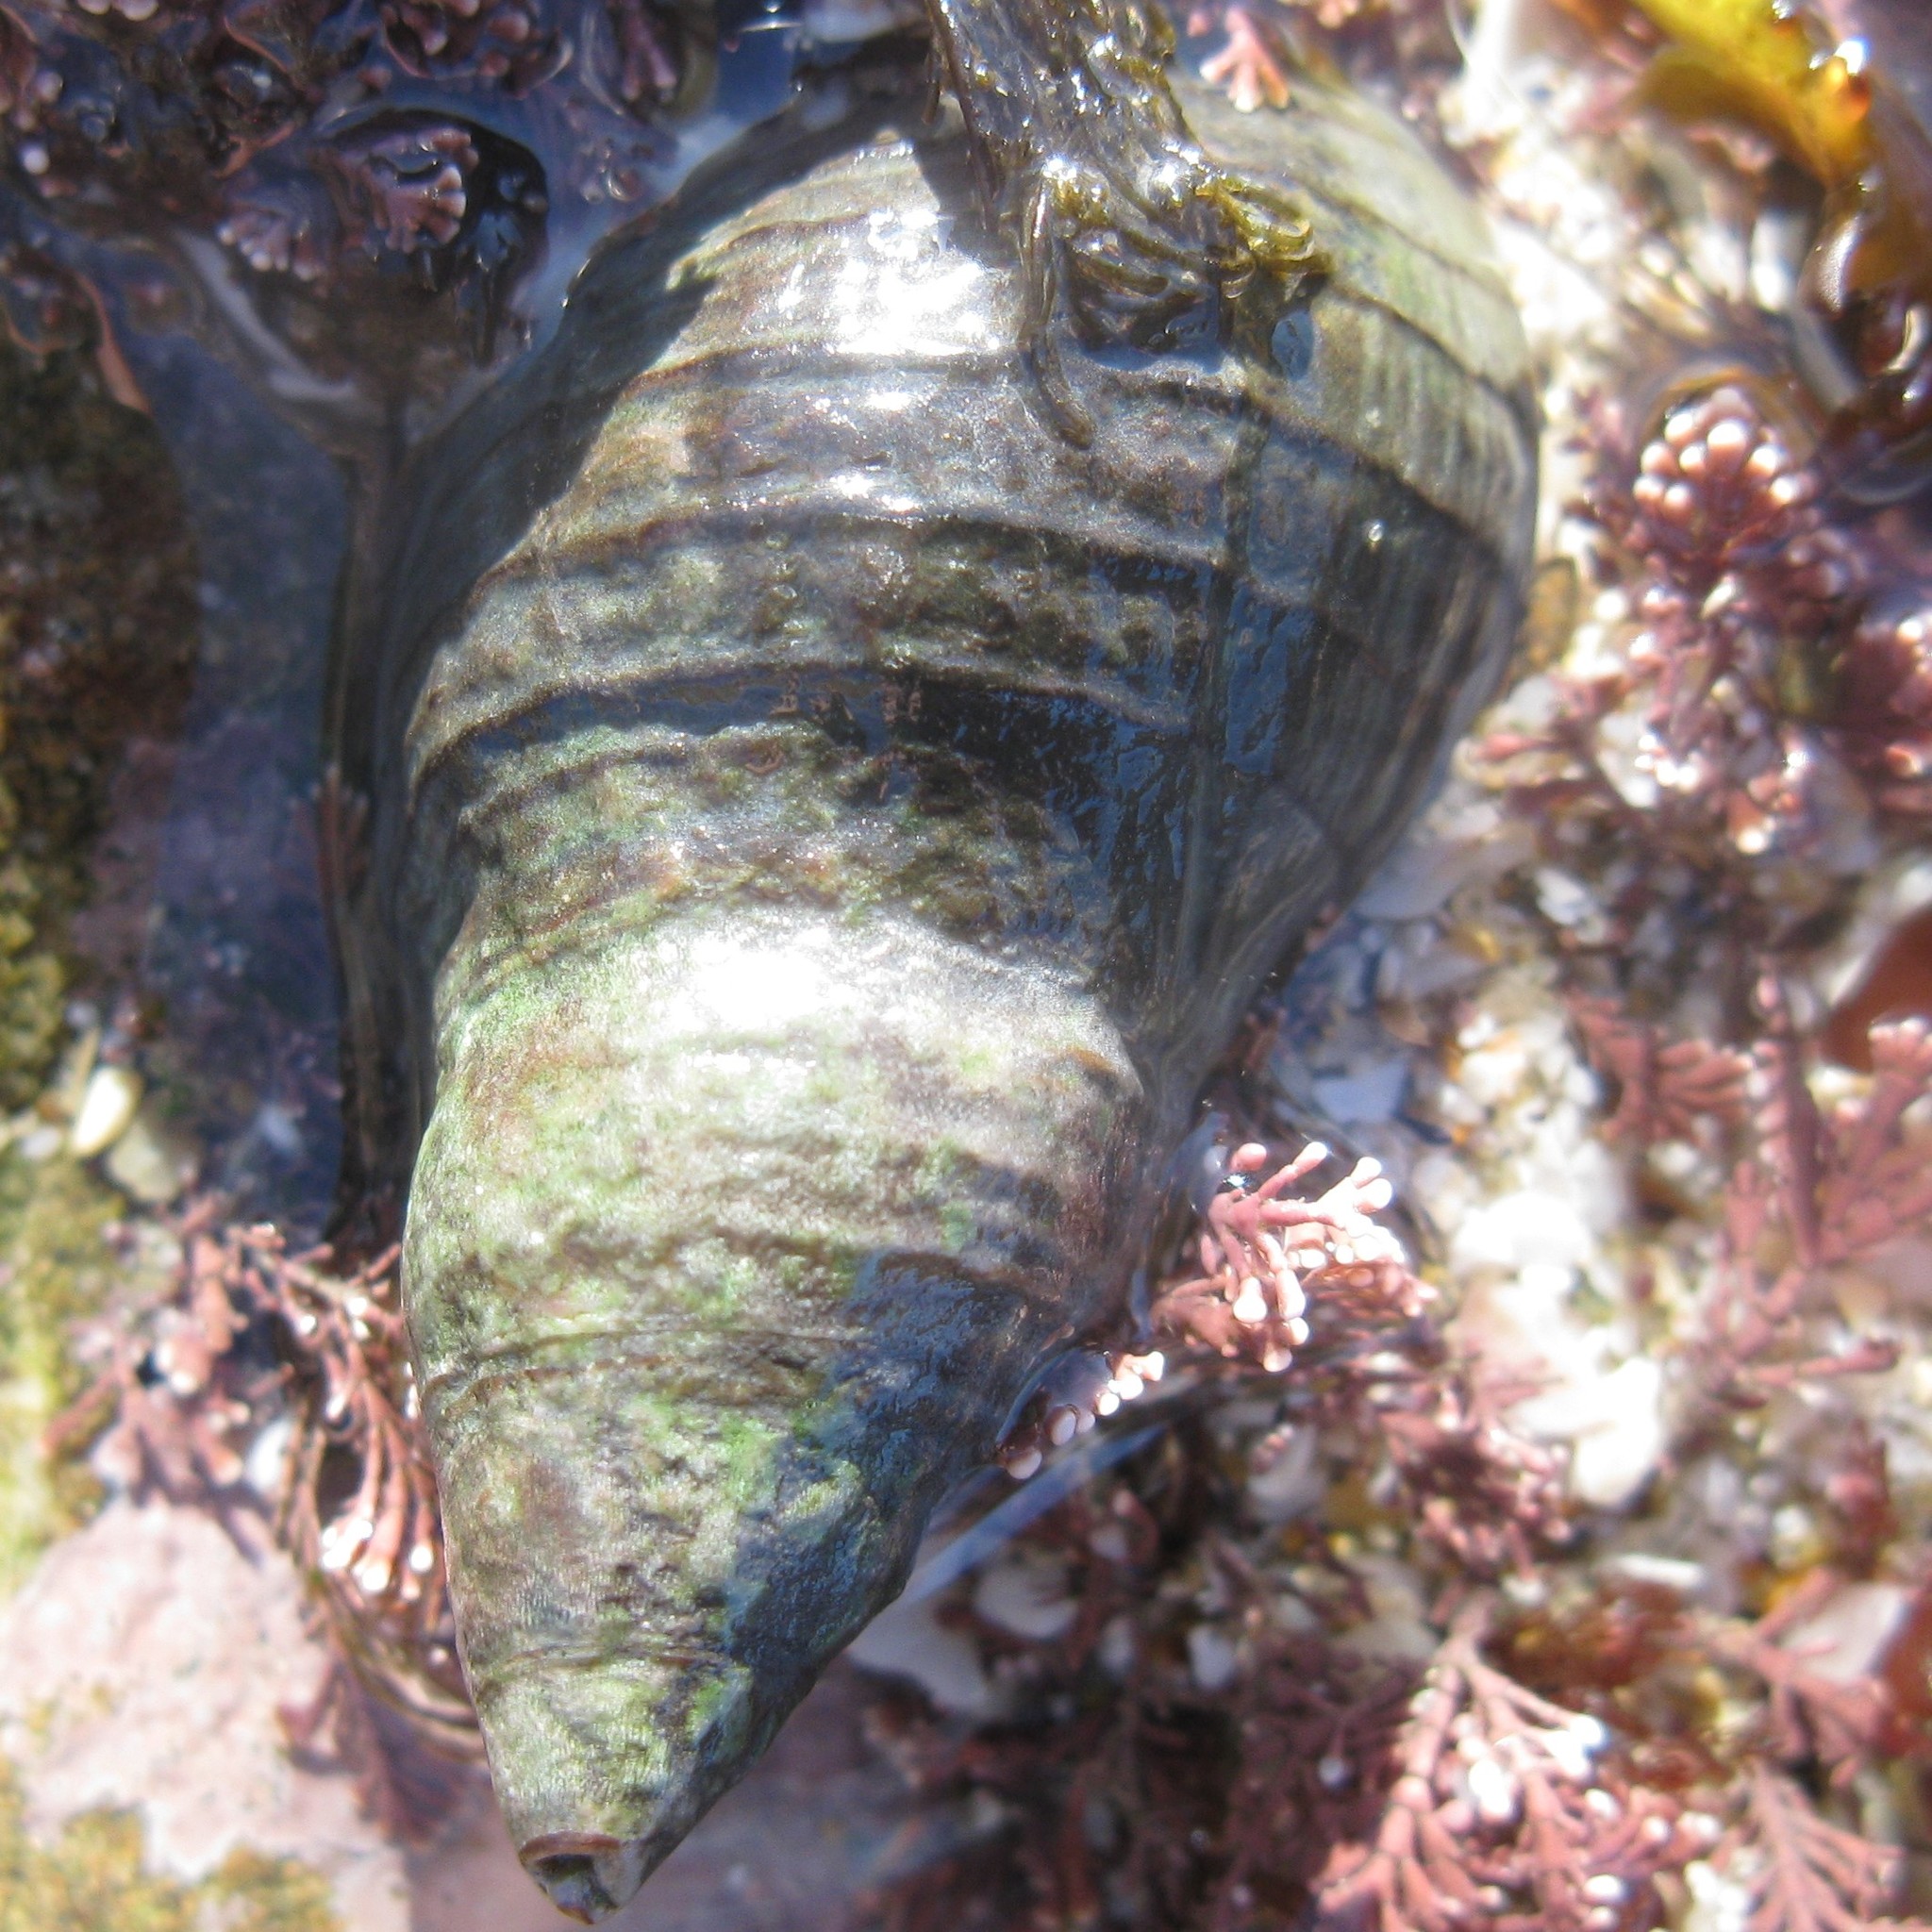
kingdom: Animalia
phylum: Mollusca
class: Gastropoda
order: Neogastropoda
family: Cominellidae
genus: Cominella
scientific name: Cominella virgata
